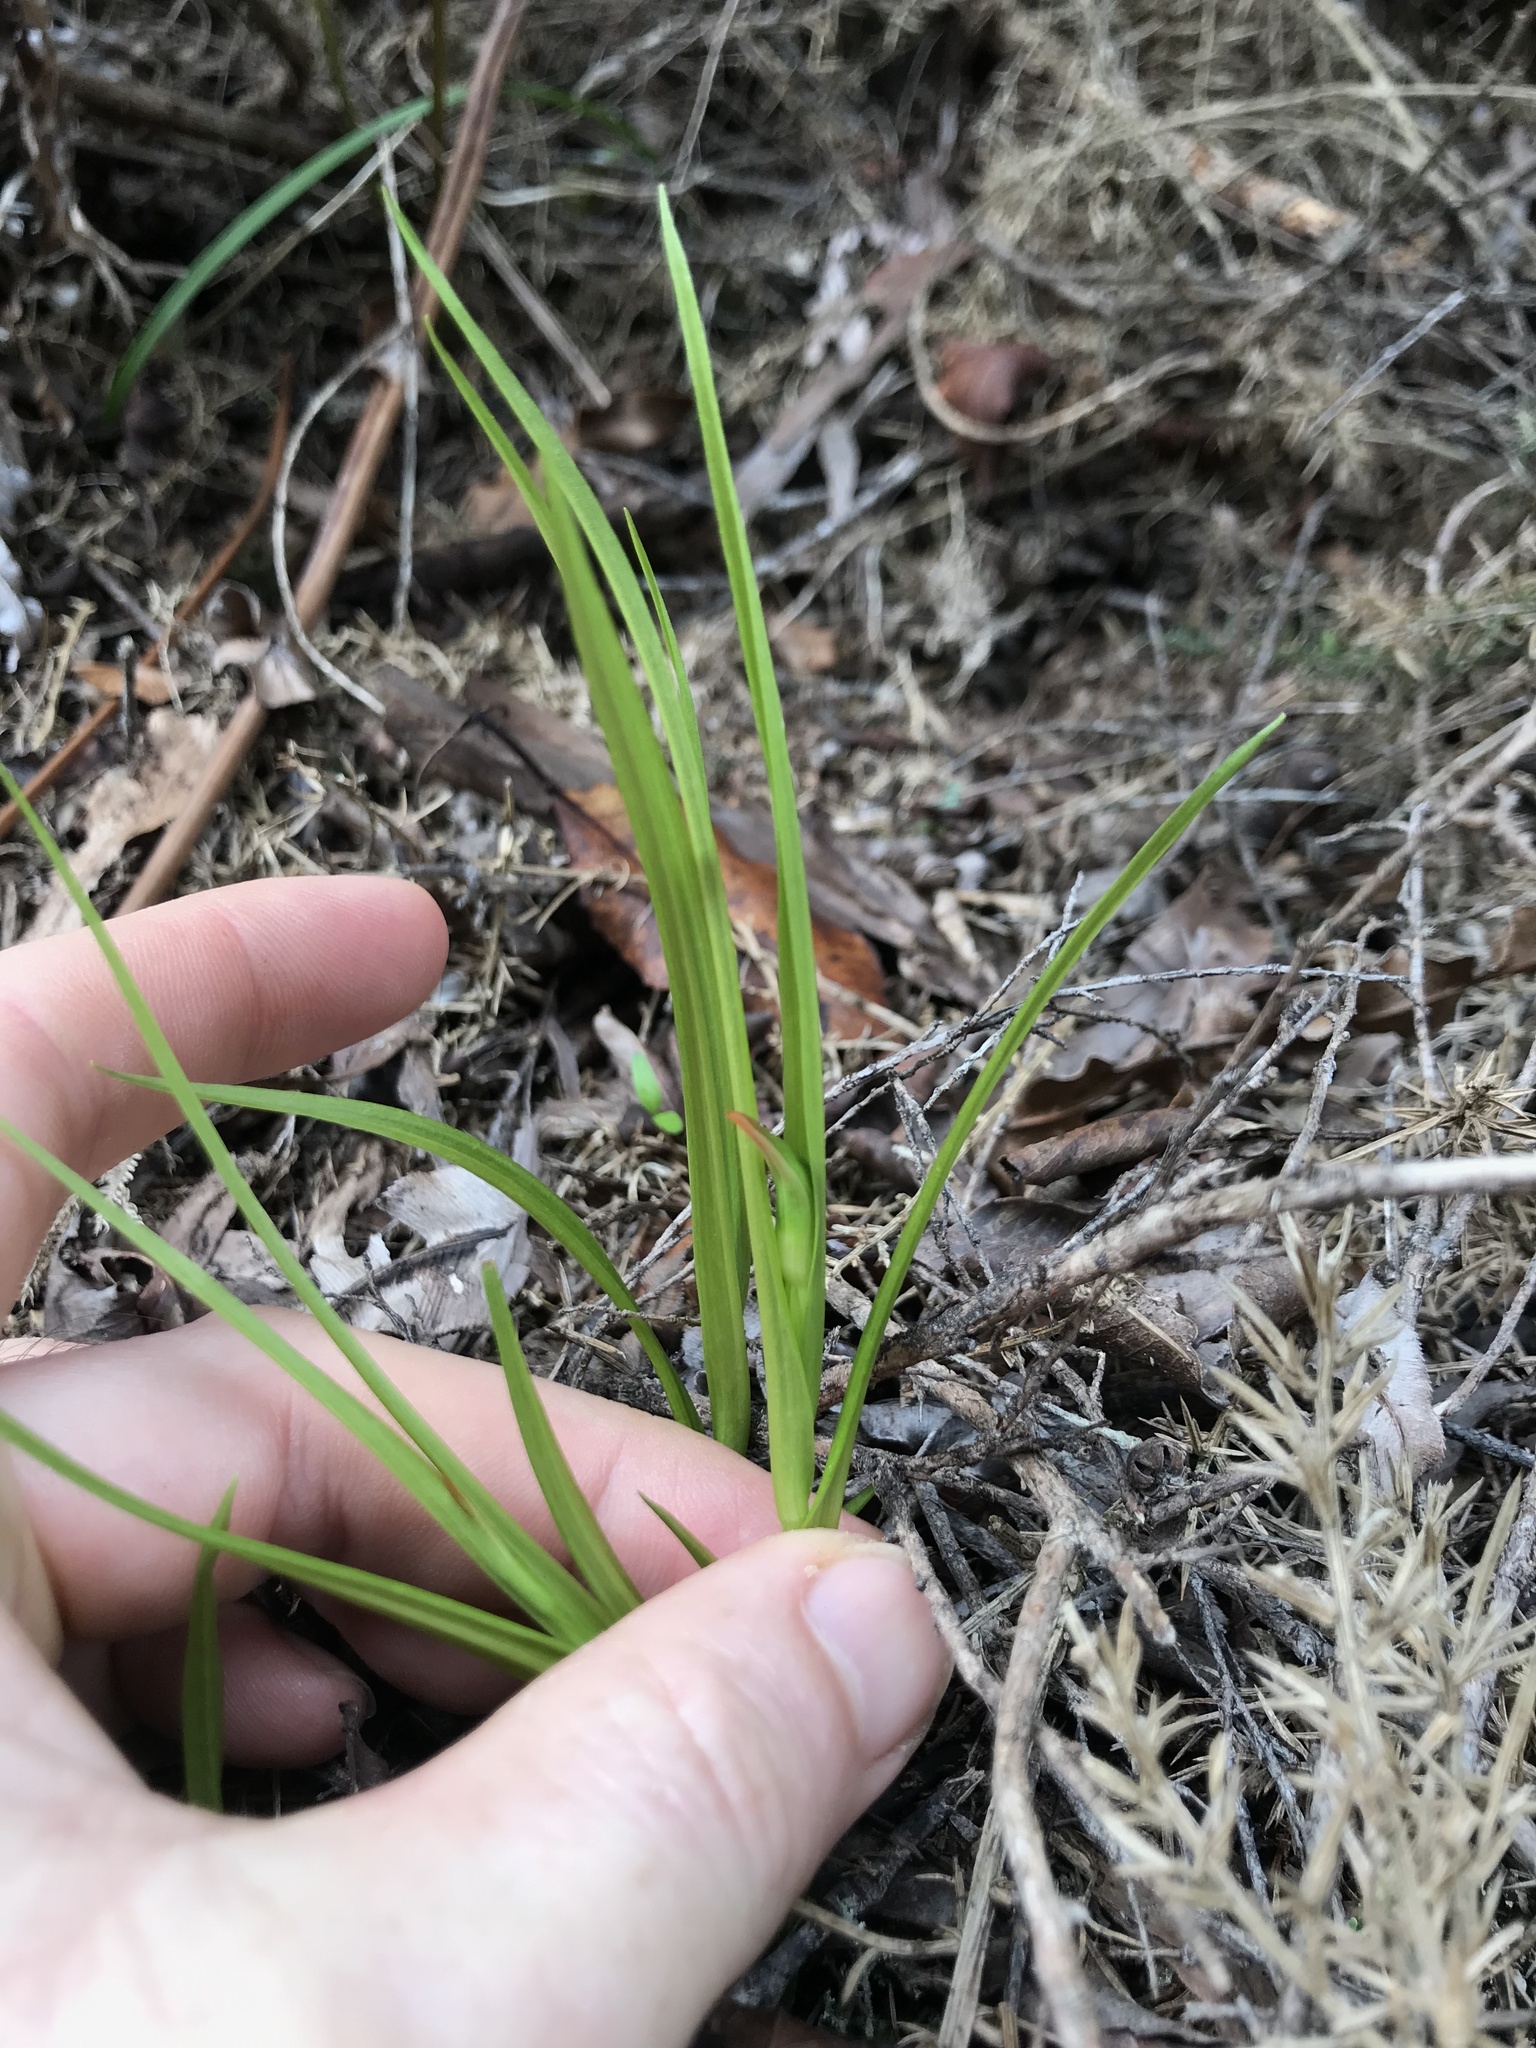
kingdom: Plantae
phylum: Tracheophyta
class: Liliopsida
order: Asparagales
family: Orchidaceae
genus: Pterostylis
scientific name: Pterostylis graminea
